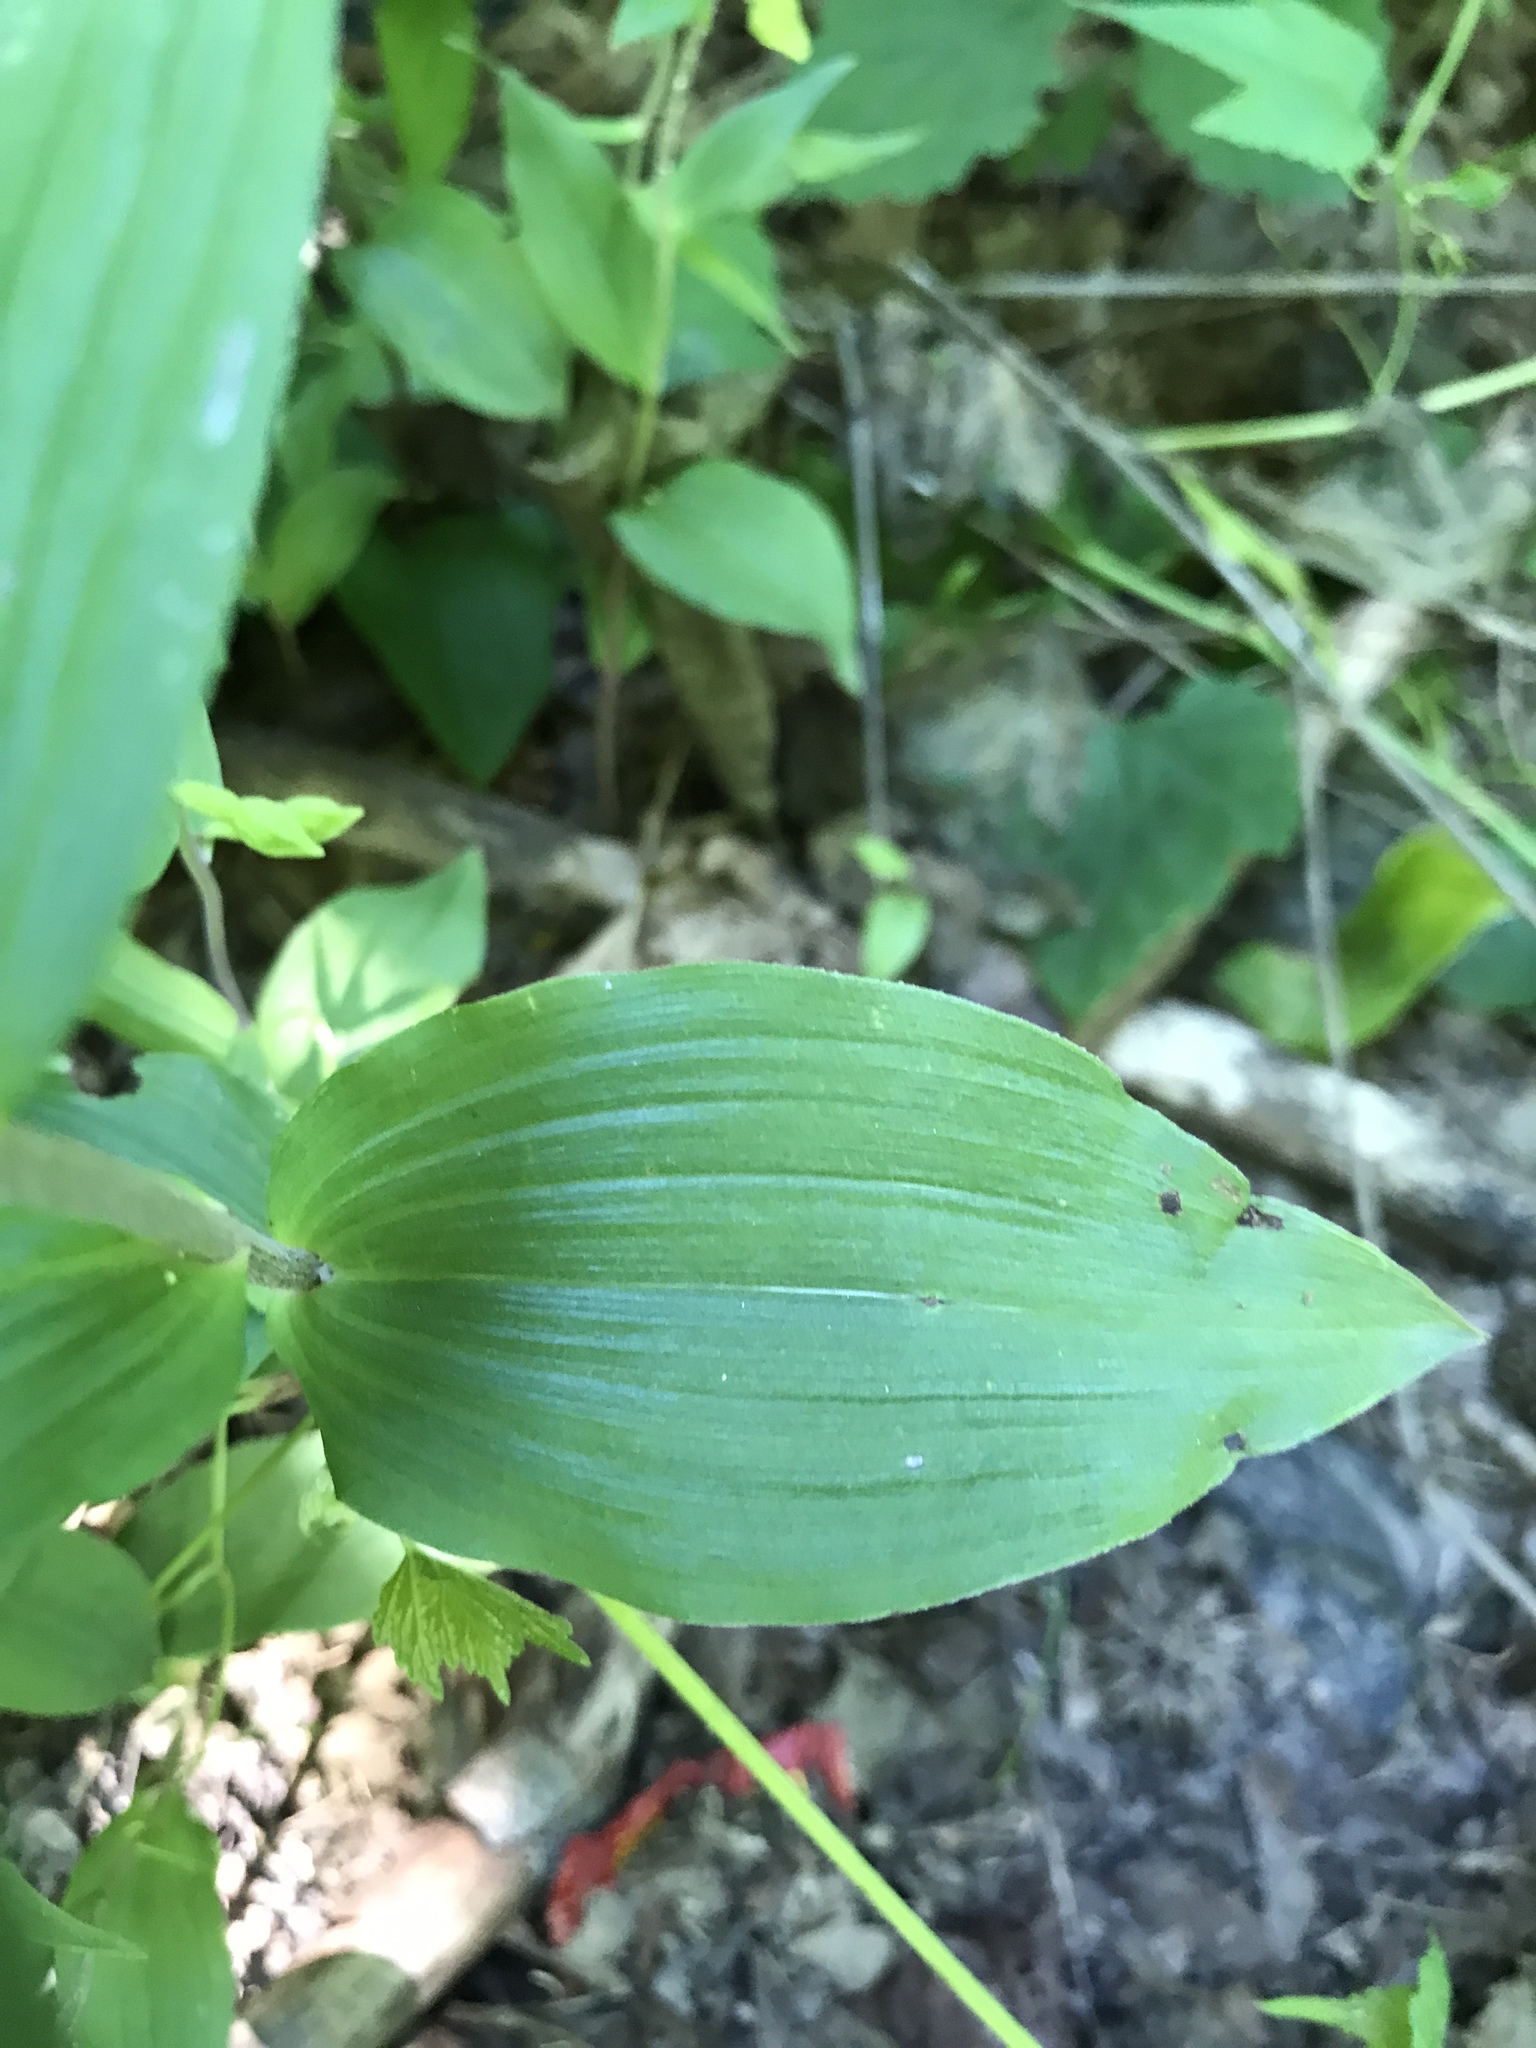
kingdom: Plantae
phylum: Tracheophyta
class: Liliopsida
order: Asparagales
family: Orchidaceae
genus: Epipactis
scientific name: Epipactis helleborine
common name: Broad-leaved helleborine
